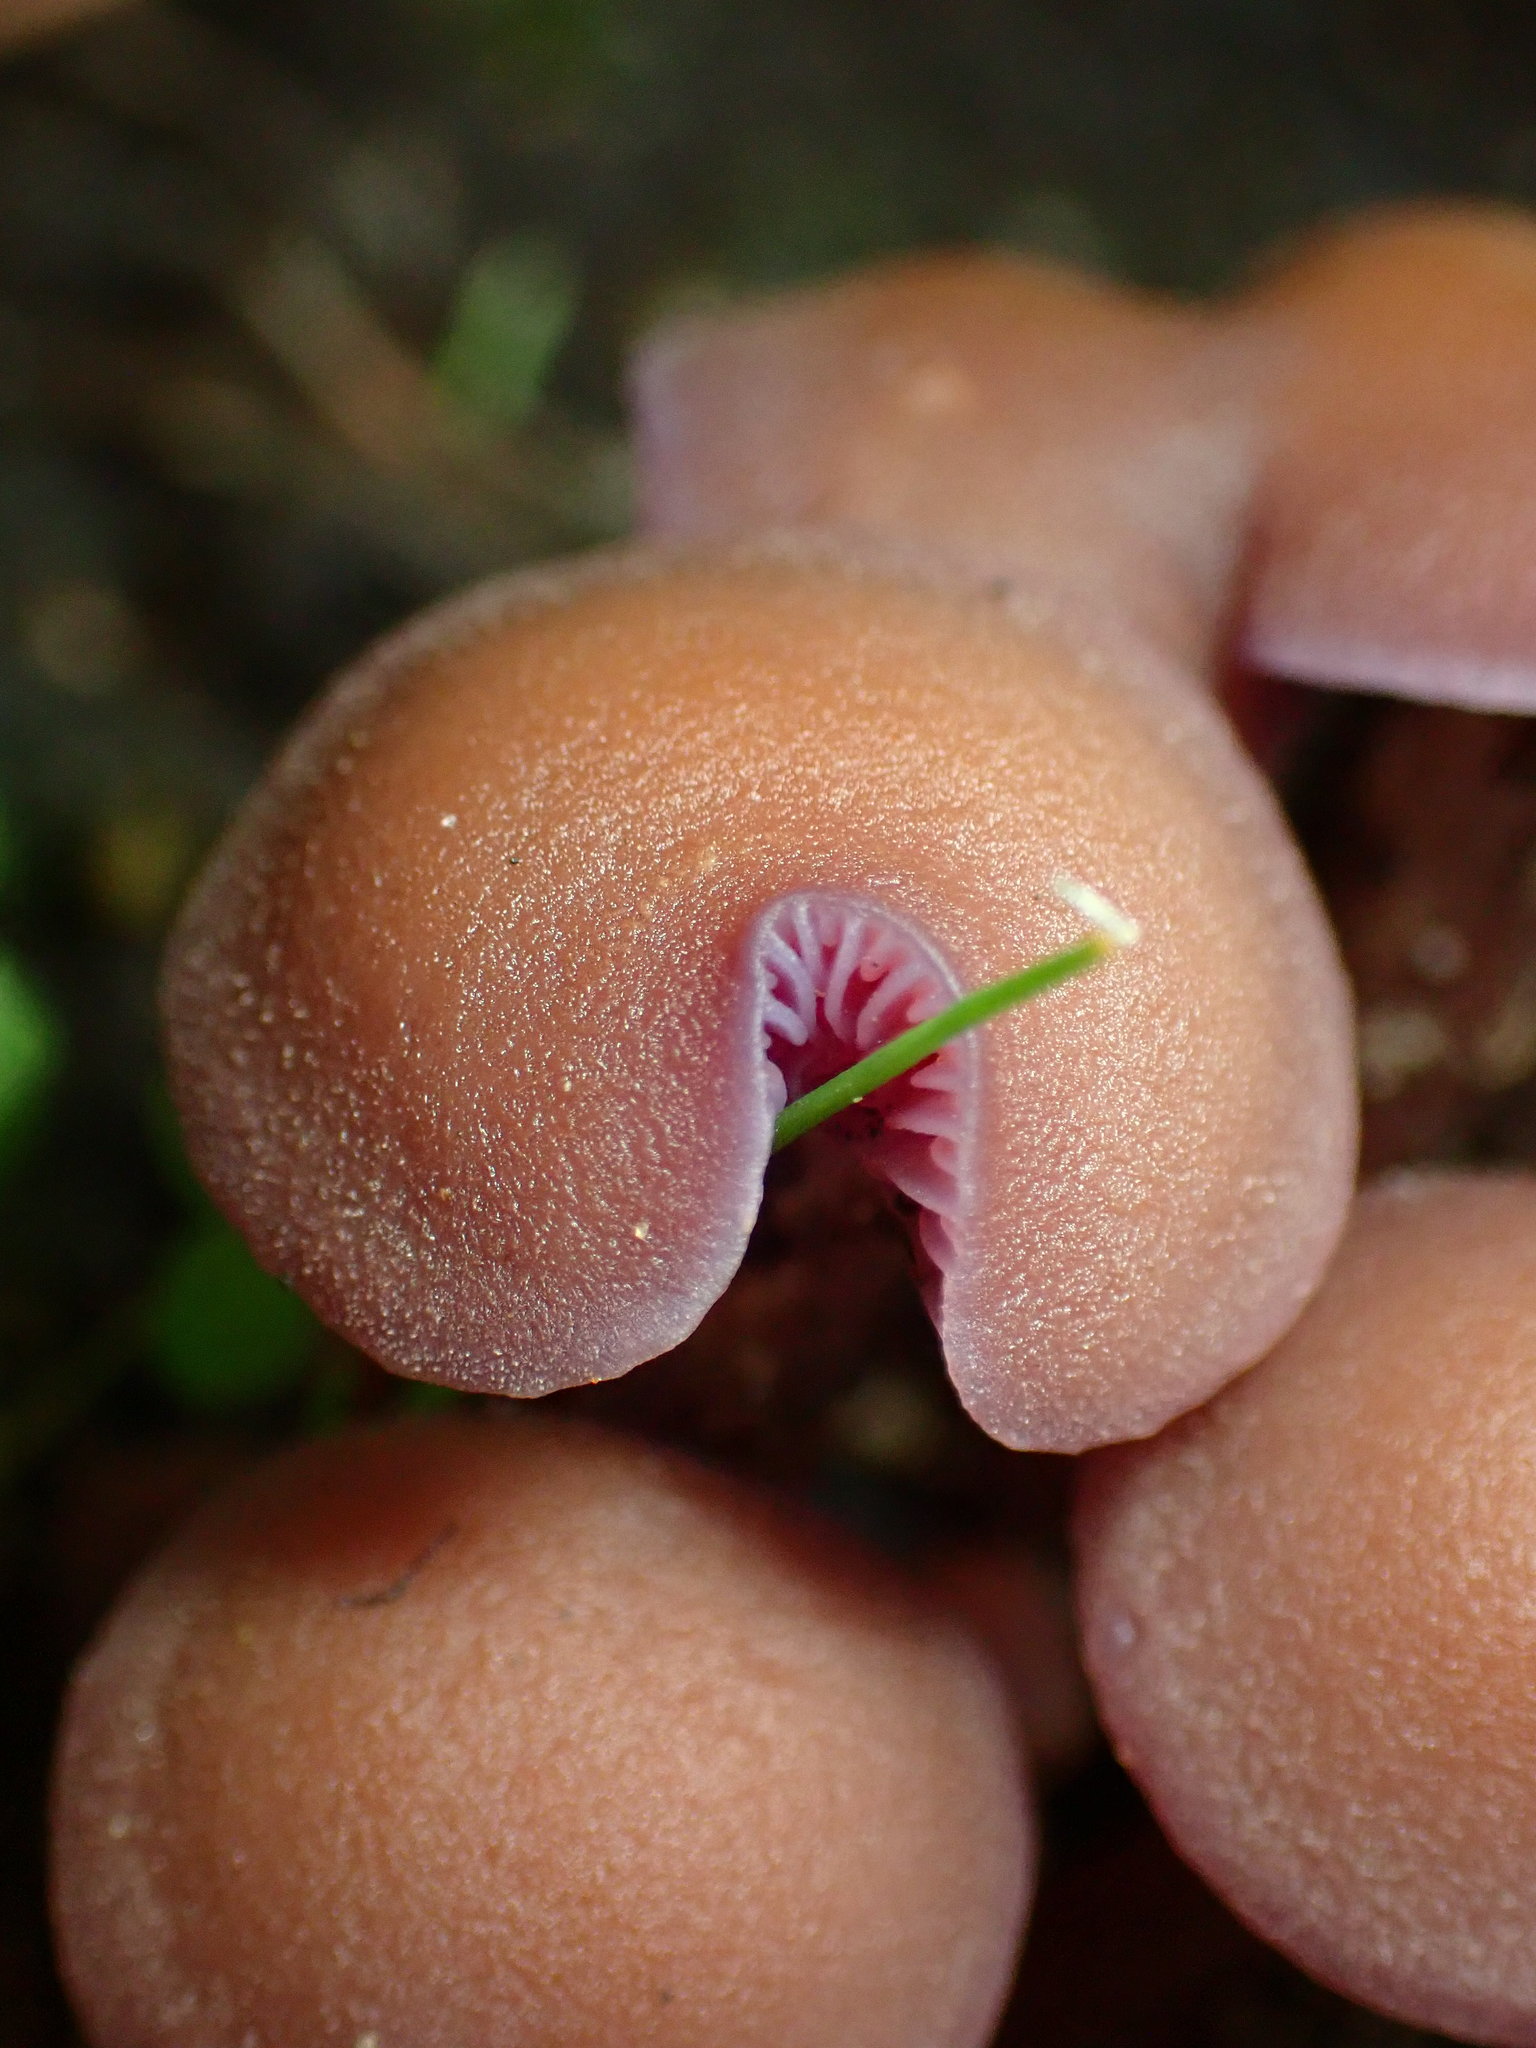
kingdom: Fungi
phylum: Basidiomycota
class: Agaricomycetes
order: Agaricales
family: Hydnangiaceae
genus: Laccaria
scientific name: Laccaria amethysteo-occidentalis
